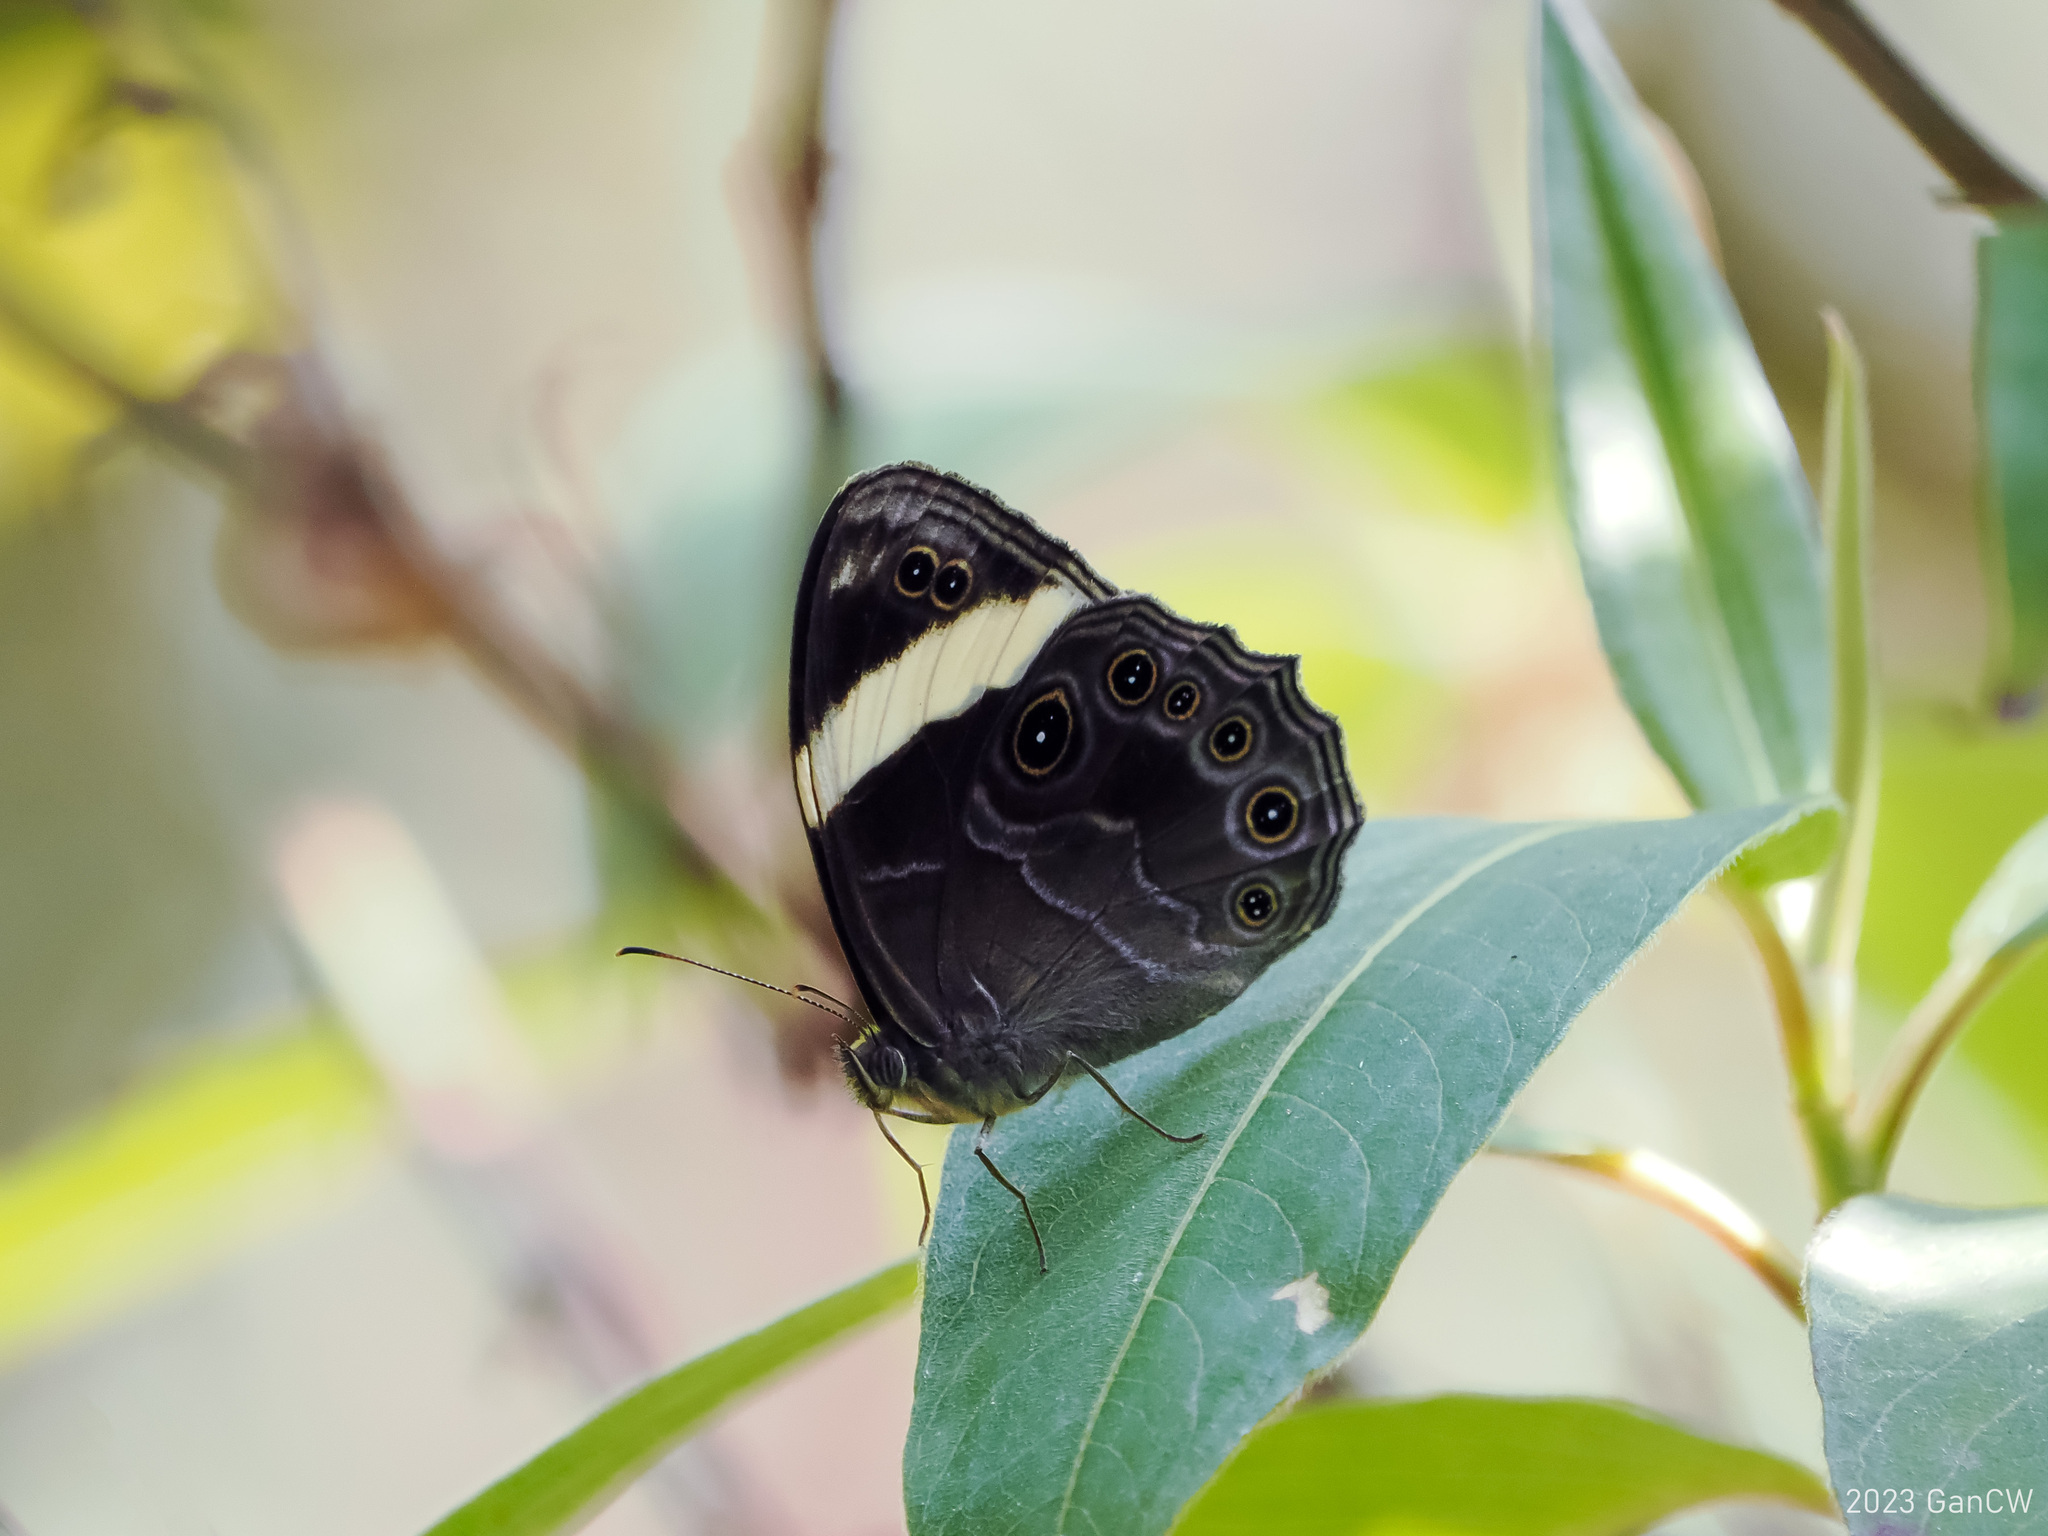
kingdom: Animalia
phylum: Arthropoda
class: Insecta
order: Lepidoptera
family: Nymphalidae
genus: Lethe
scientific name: Lethe verma
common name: Straight-banded treebrown
